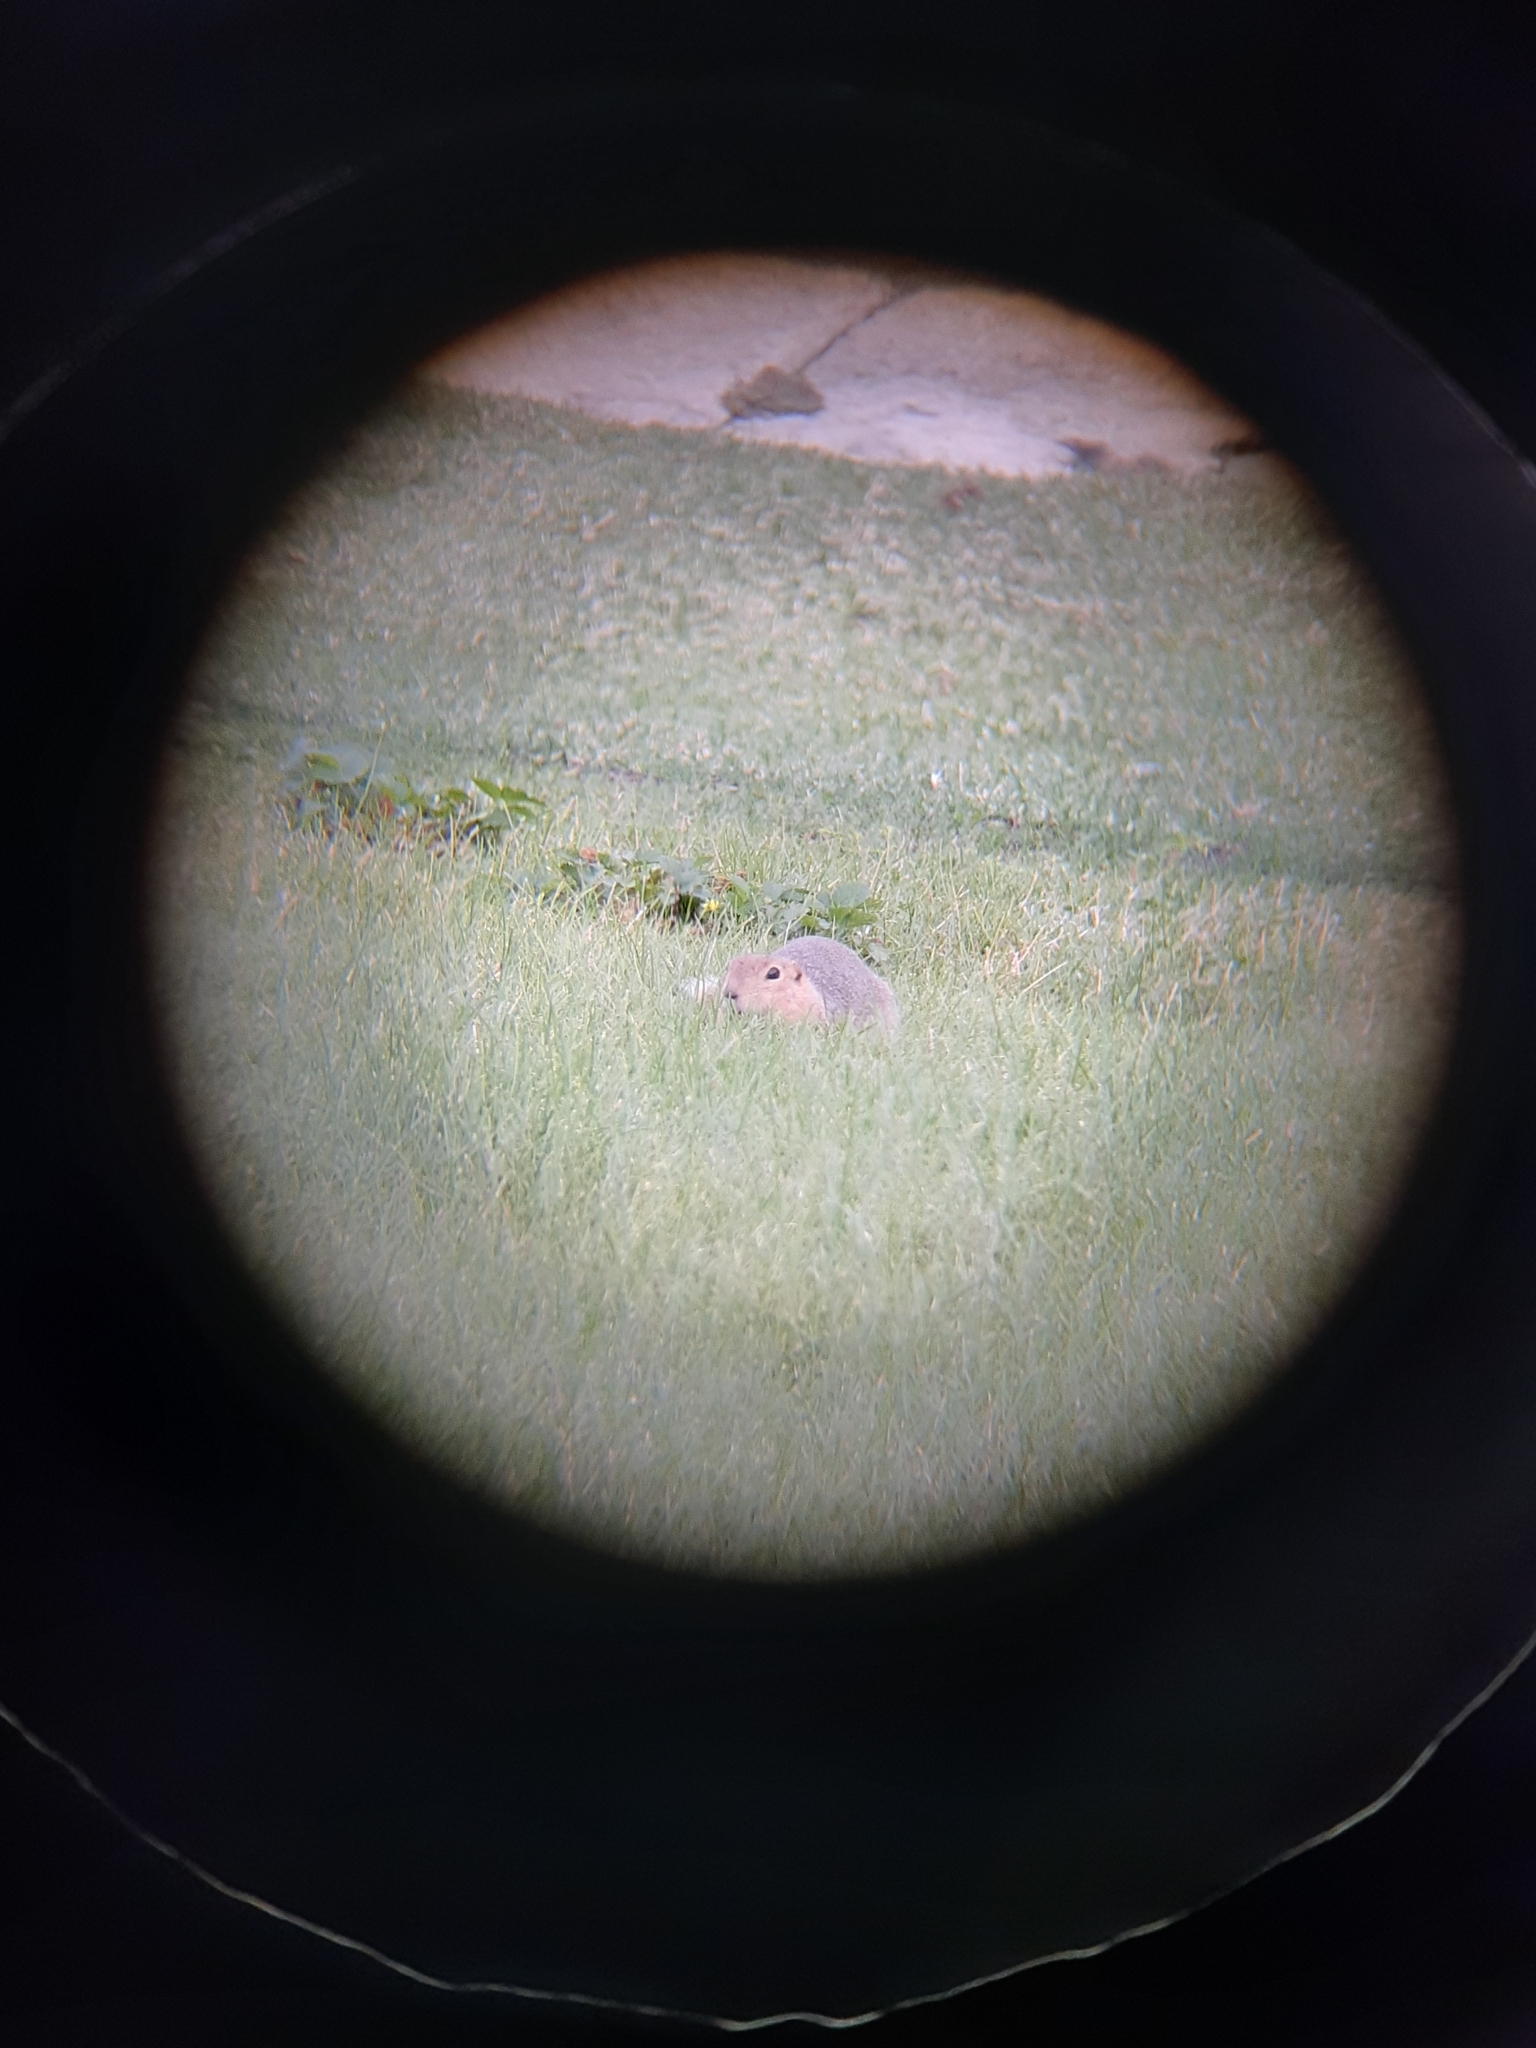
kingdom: Animalia
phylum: Chordata
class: Mammalia
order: Rodentia
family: Sciuridae
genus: Urocitellus
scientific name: Urocitellus richardsonii
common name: Richardson's ground squirrel
